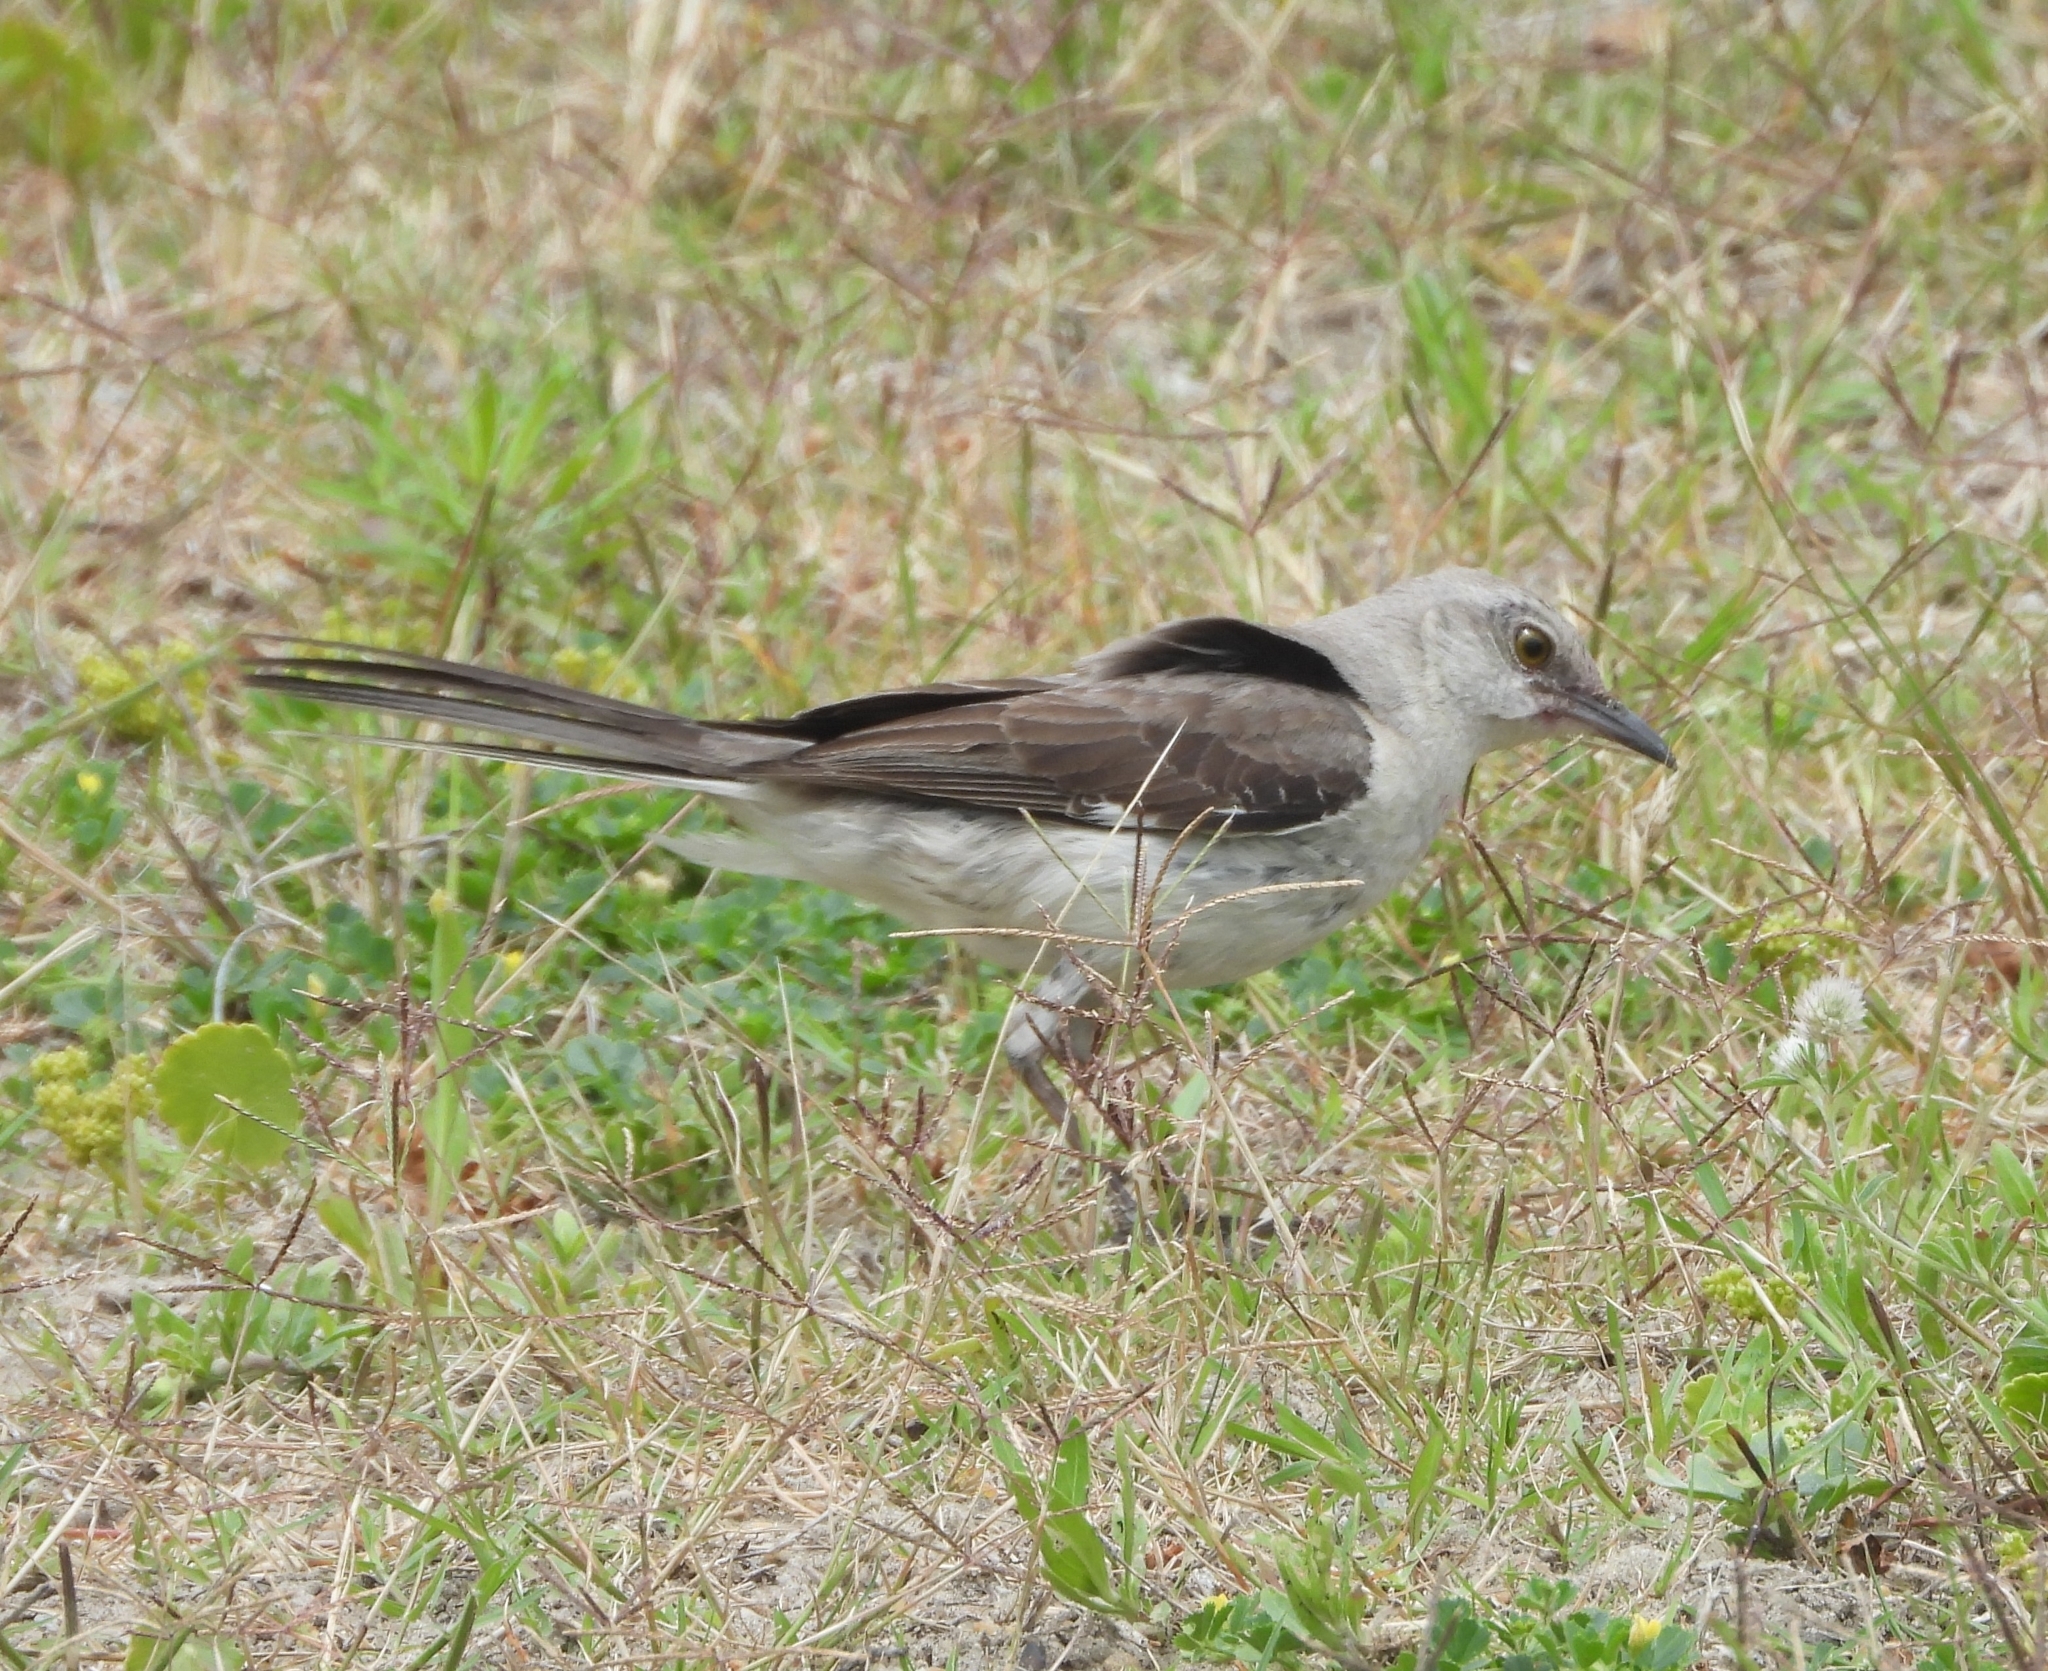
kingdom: Animalia
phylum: Chordata
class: Aves
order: Passeriformes
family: Mimidae
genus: Mimus
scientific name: Mimus polyglottos
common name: Northern mockingbird
